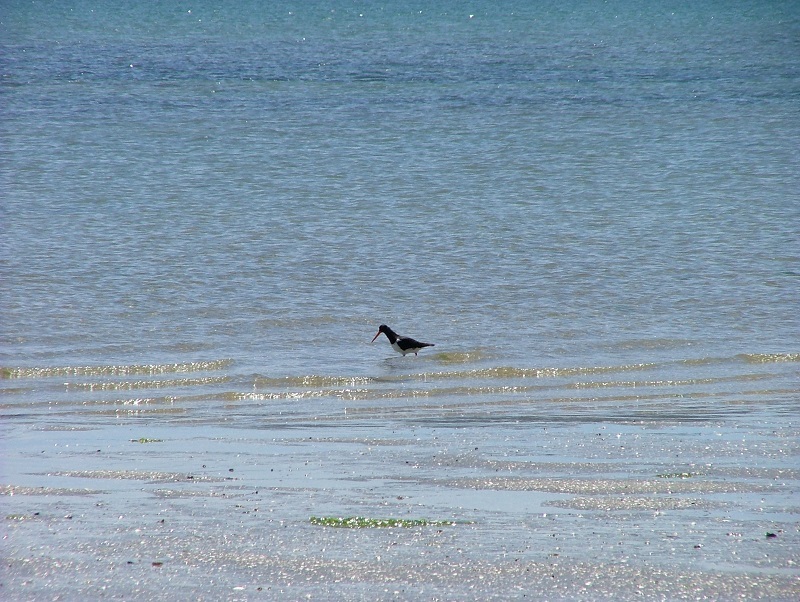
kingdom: Animalia
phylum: Chordata
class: Aves
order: Charadriiformes
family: Haematopodidae
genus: Haematopus
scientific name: Haematopus finschi
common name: South island oystercatcher
